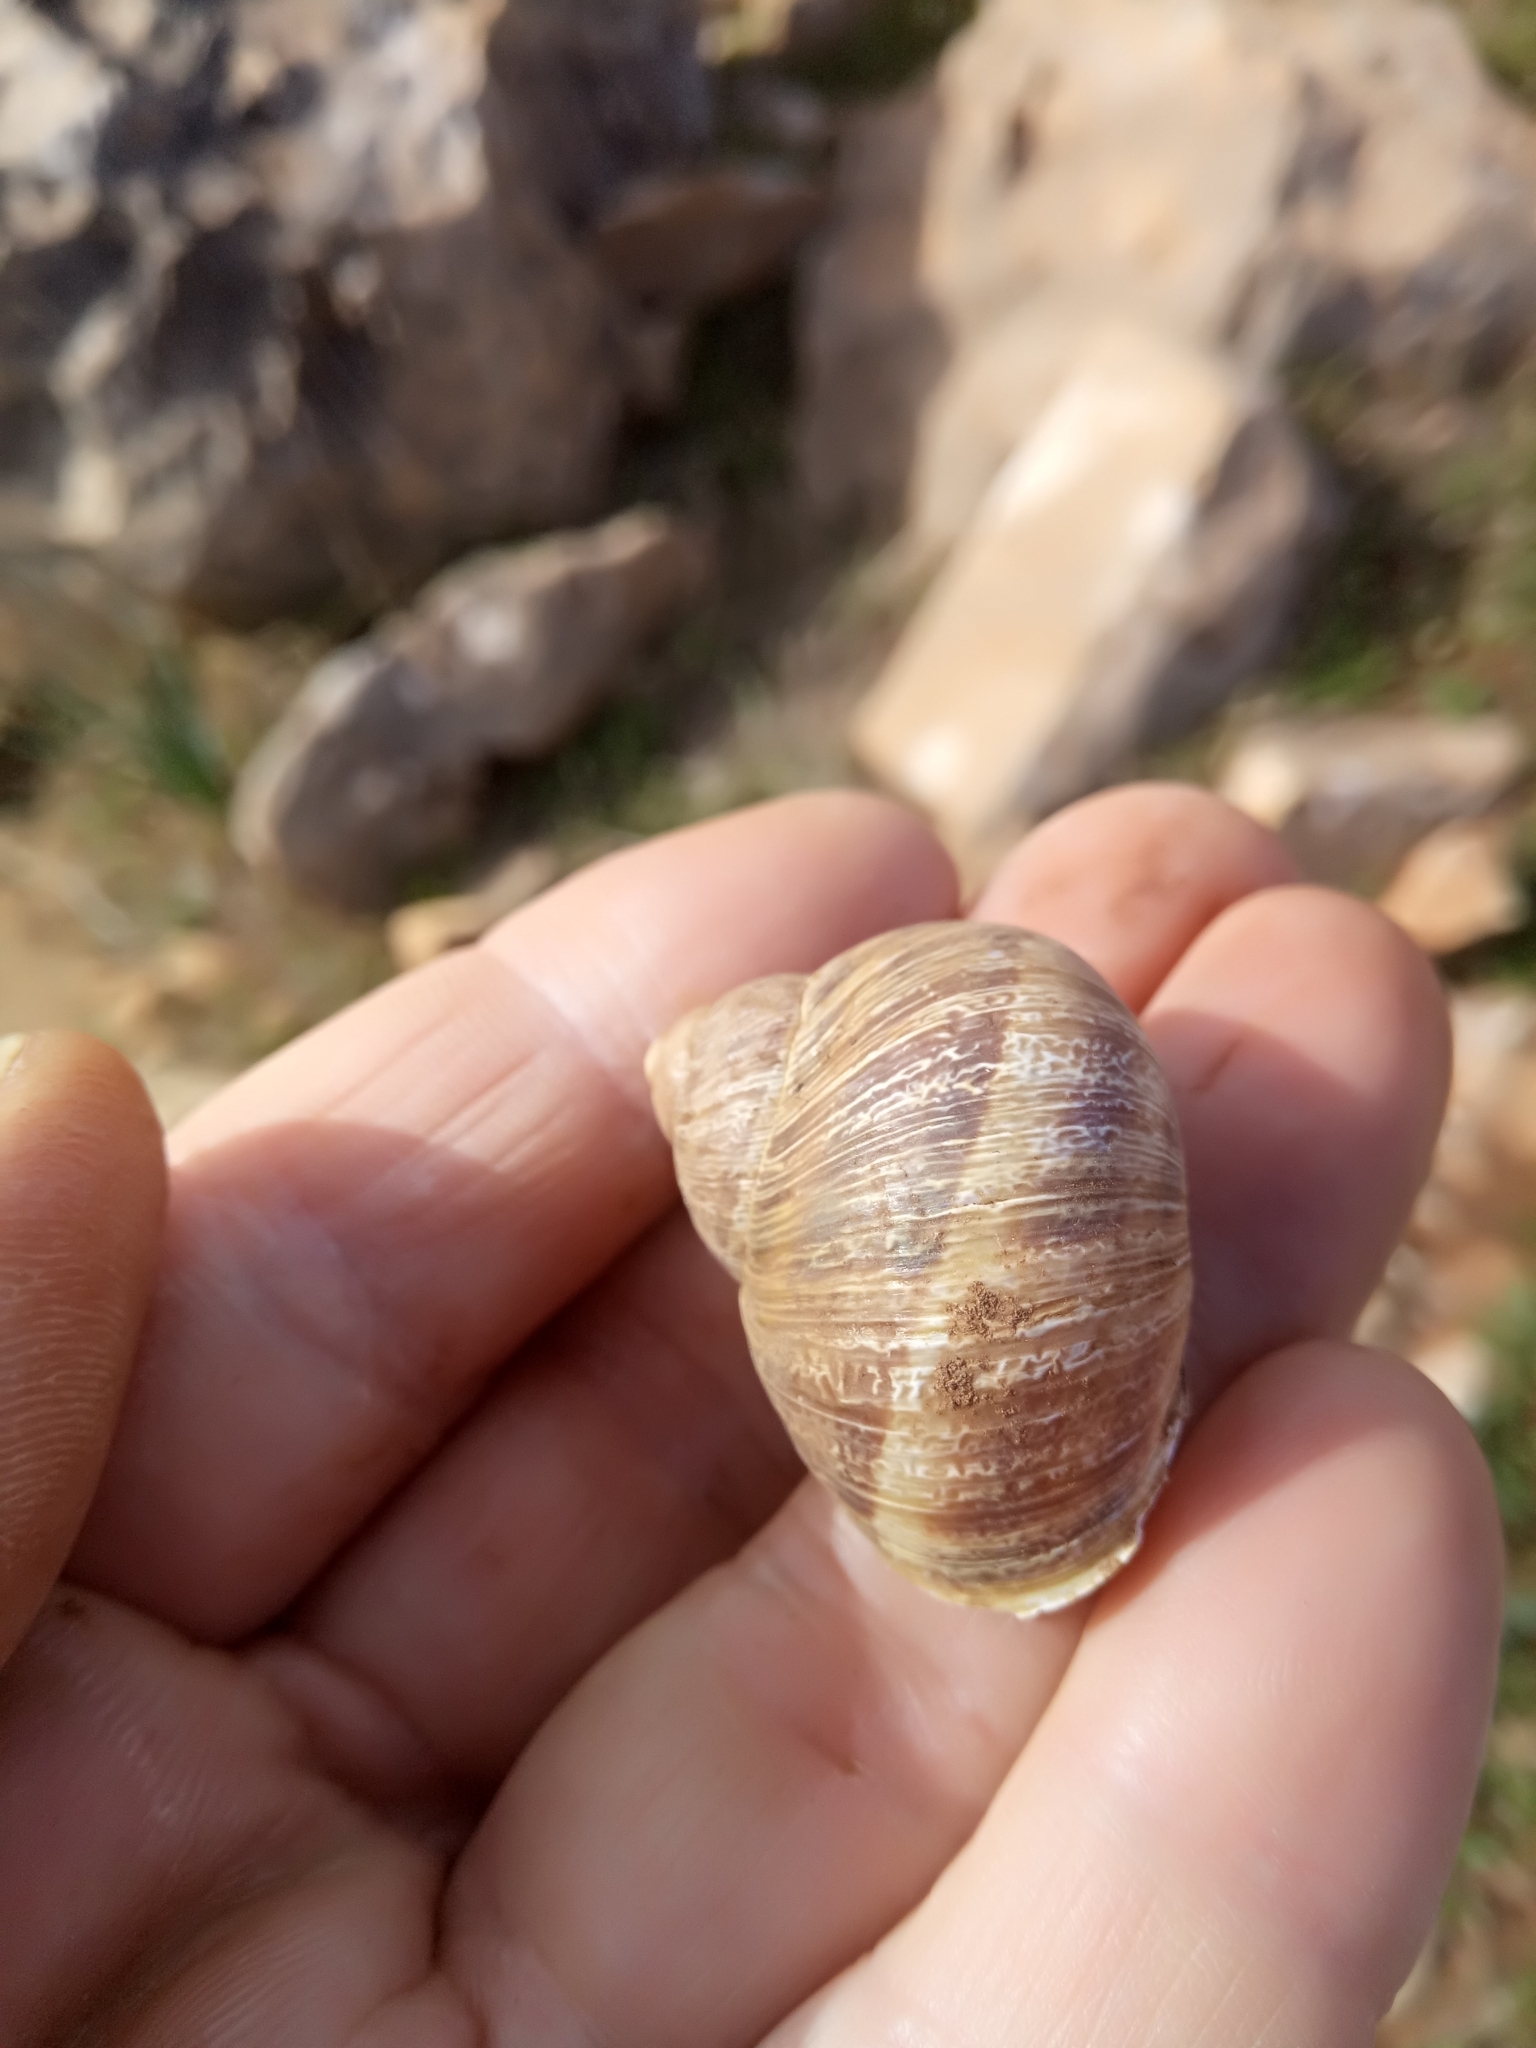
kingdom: Animalia
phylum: Mollusca
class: Gastropoda
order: Stylommatophora
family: Helicidae
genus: Cornu
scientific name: Cornu aspersum
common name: Brown garden snail
